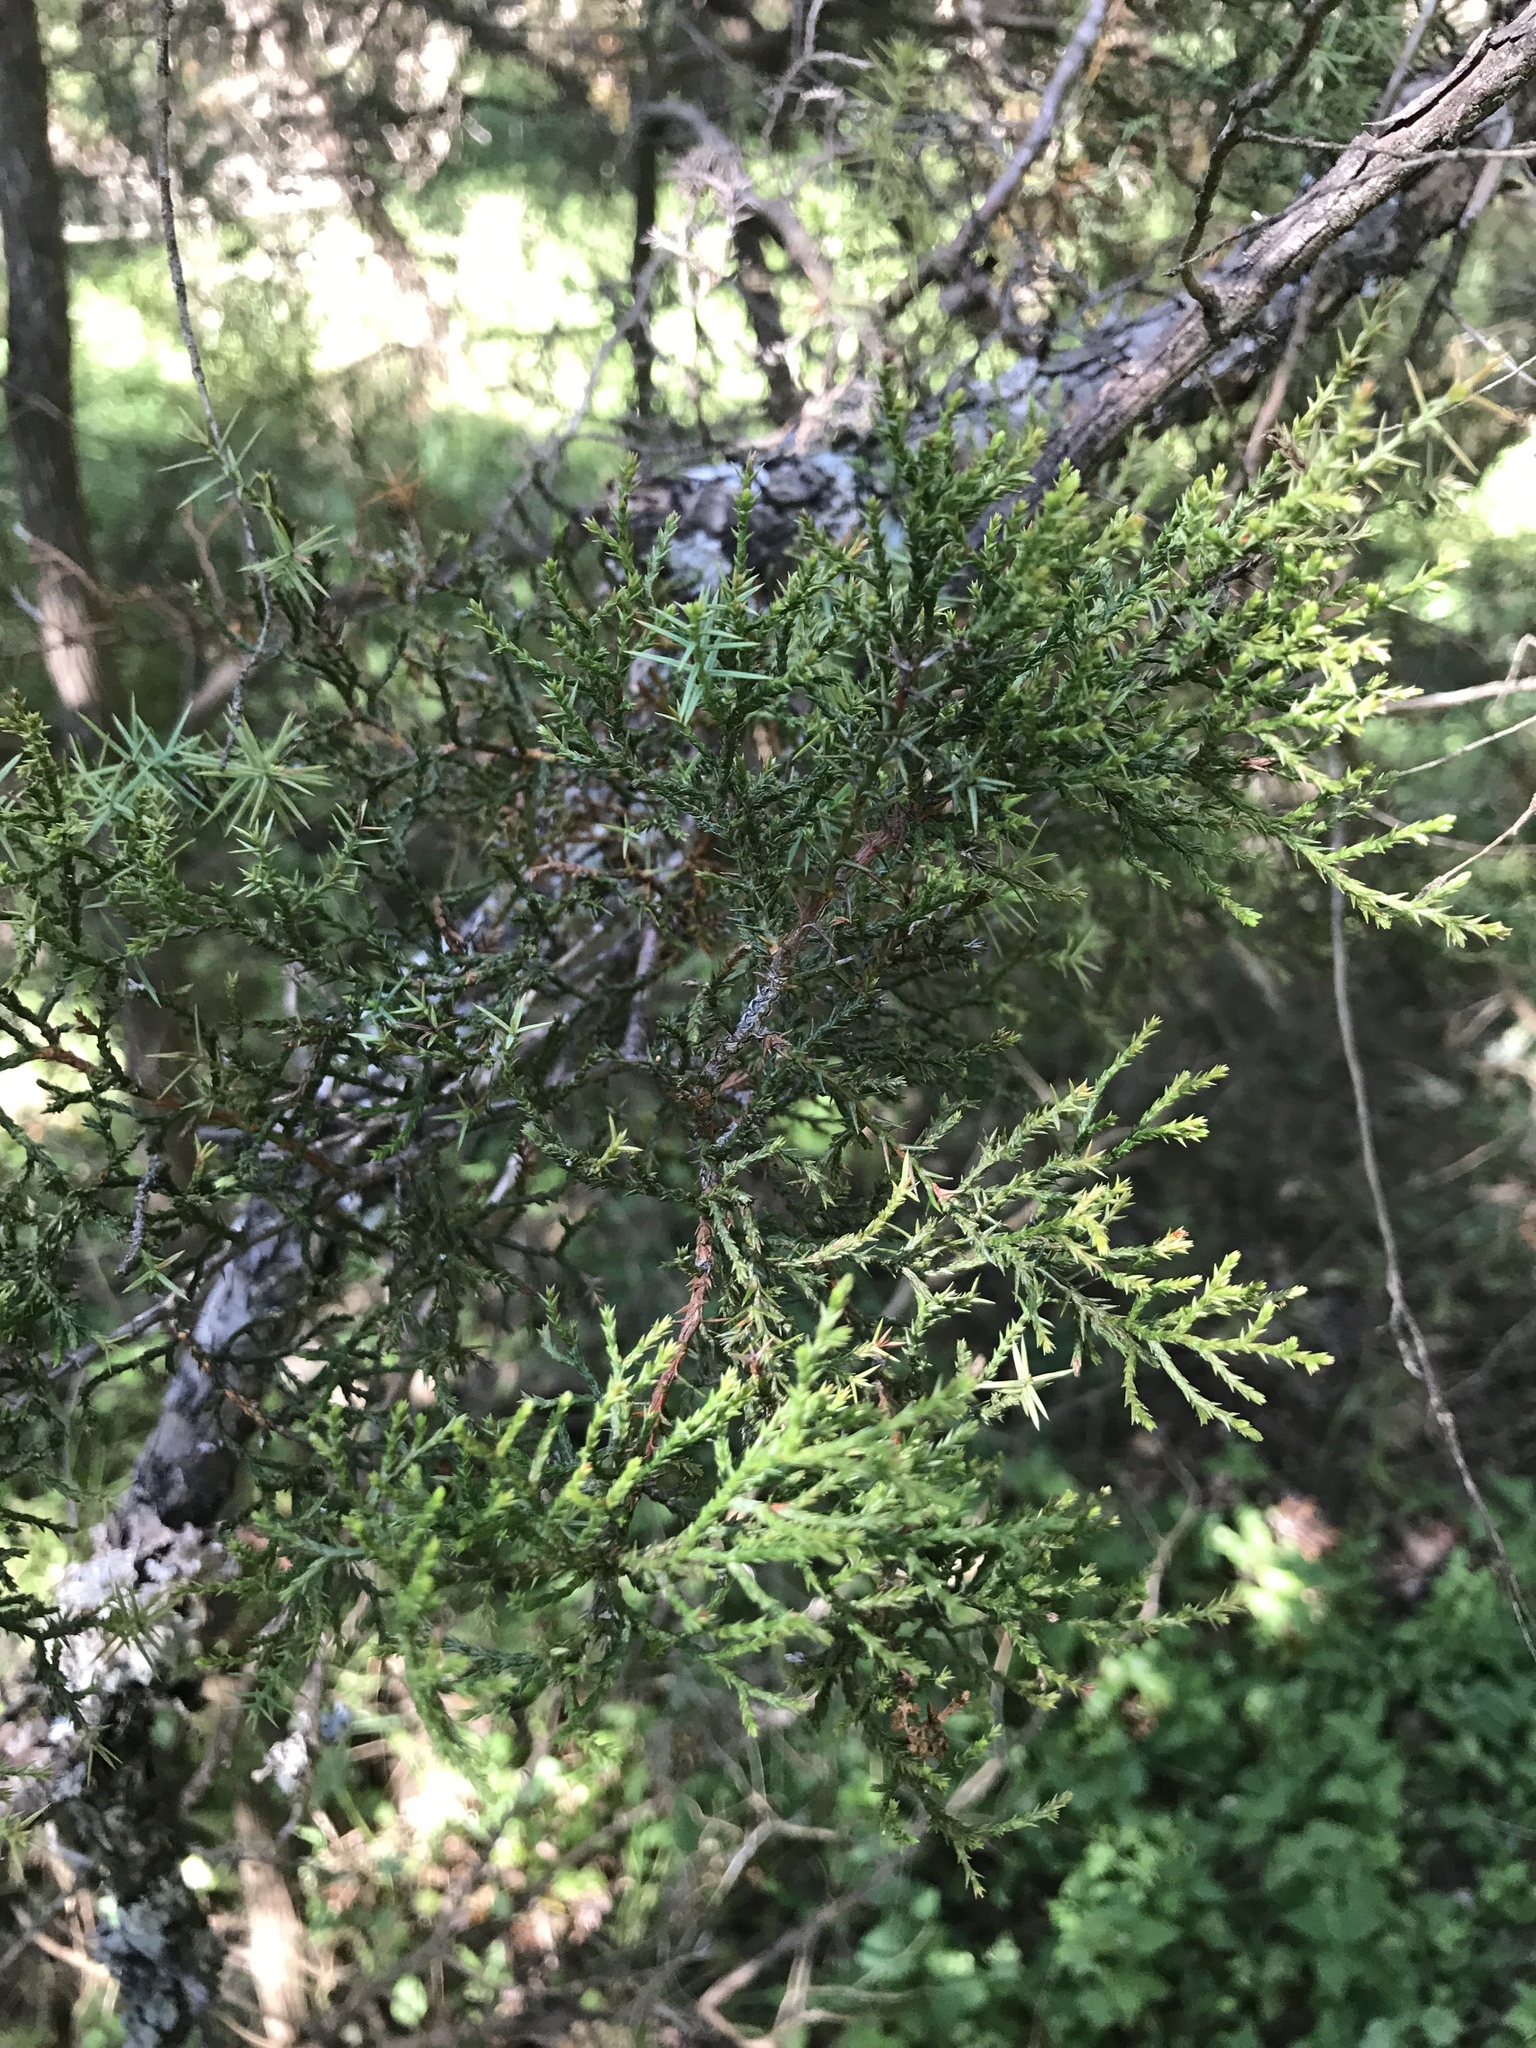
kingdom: Plantae
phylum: Tracheophyta
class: Pinopsida
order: Pinales
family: Cupressaceae
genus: Juniperus
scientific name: Juniperus ashei
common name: Mexican juniper
